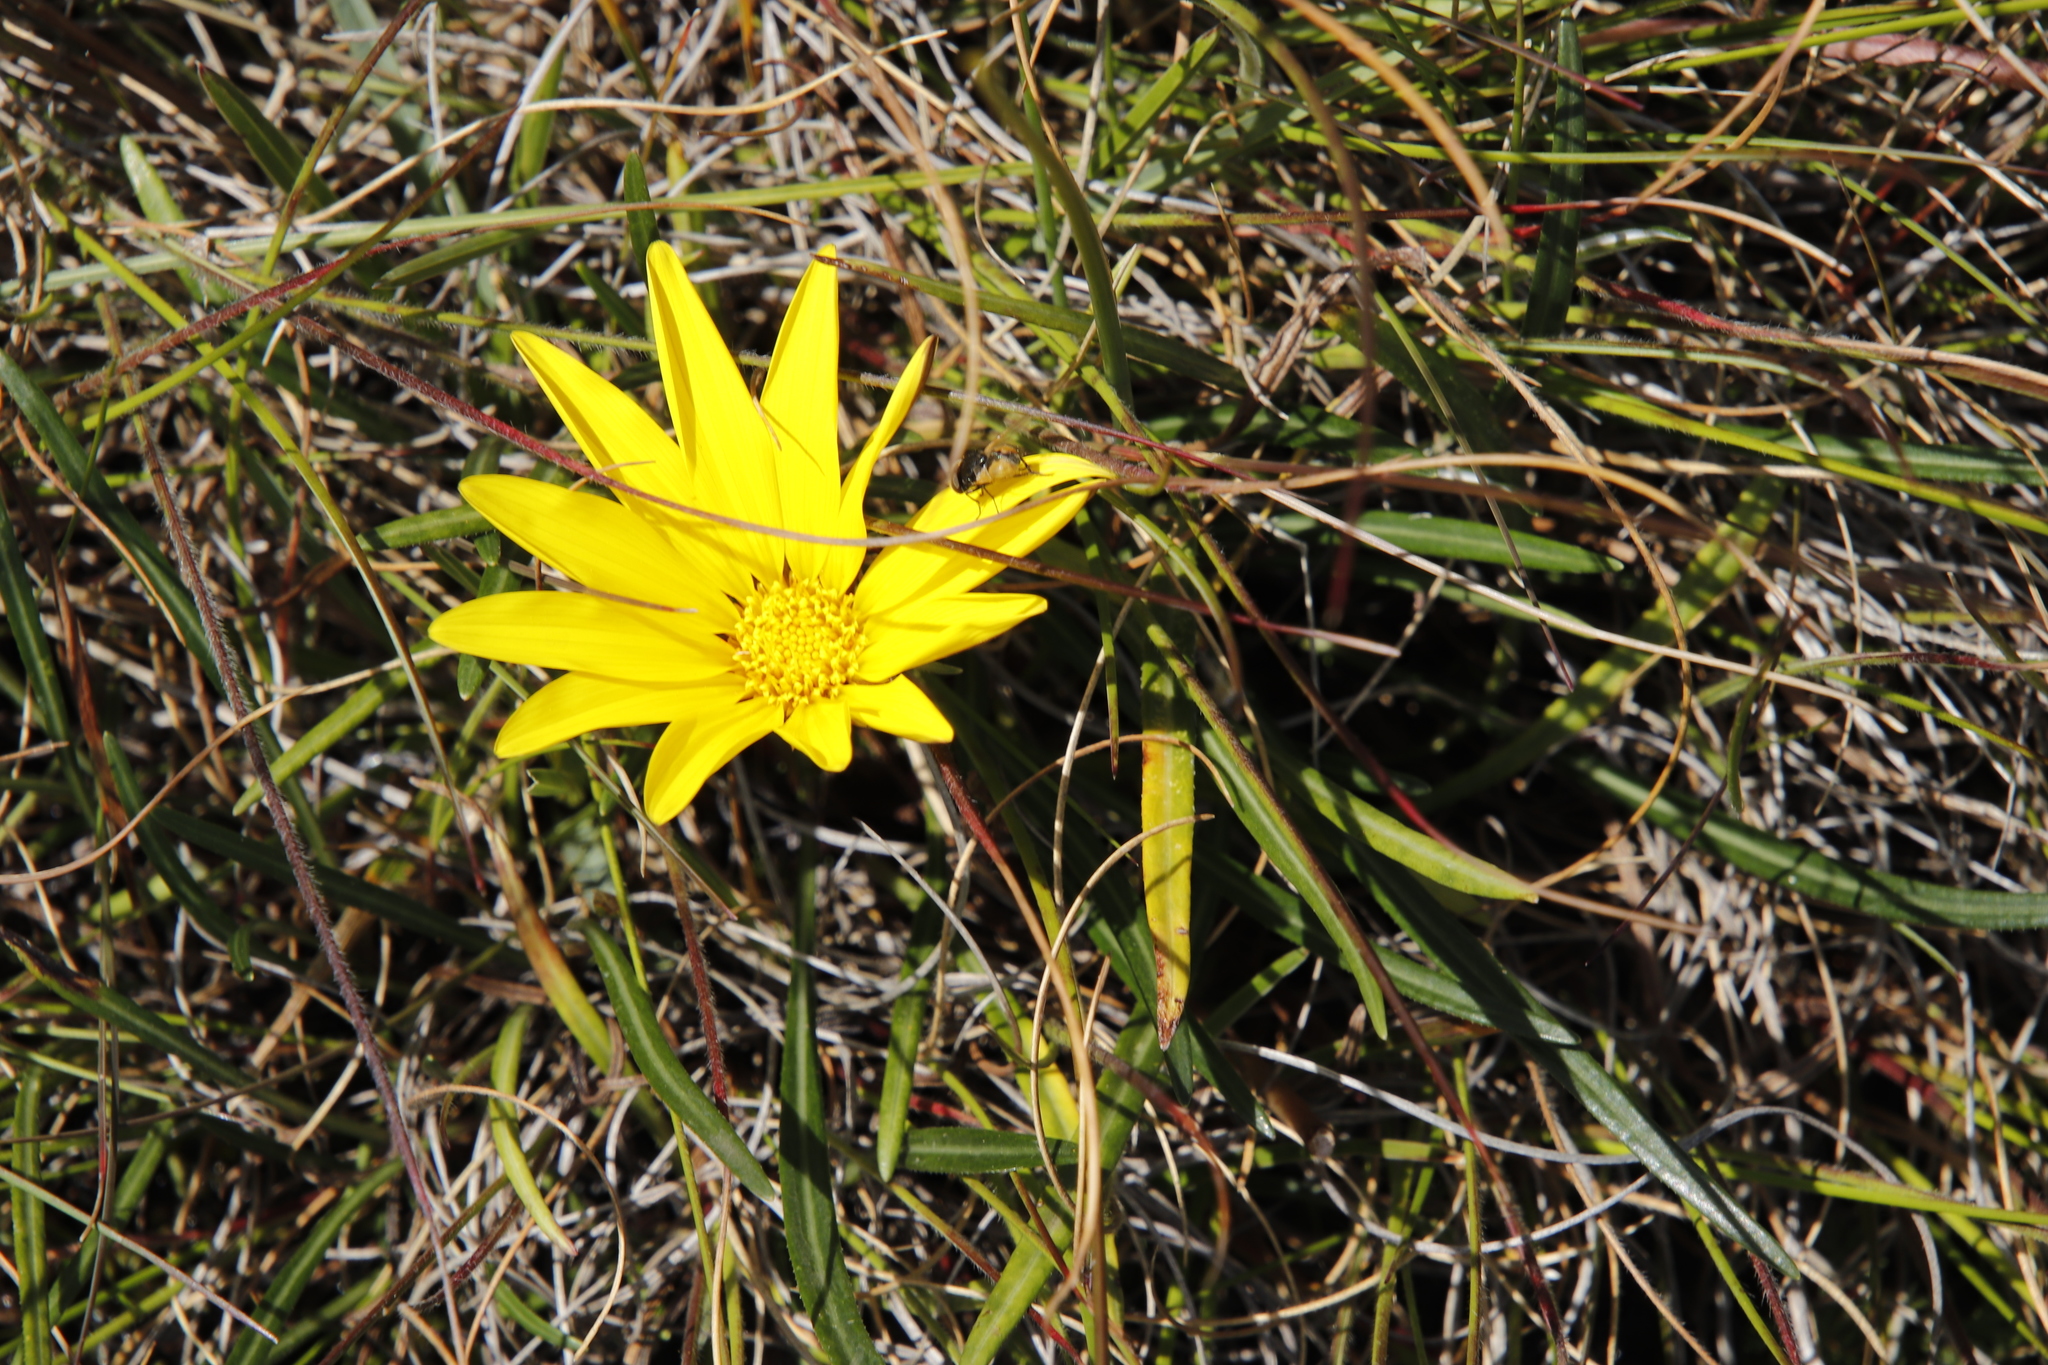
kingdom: Plantae
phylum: Tracheophyta
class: Magnoliopsida
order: Asterales
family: Asteraceae
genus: Gazania
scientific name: Gazania krebsiana
